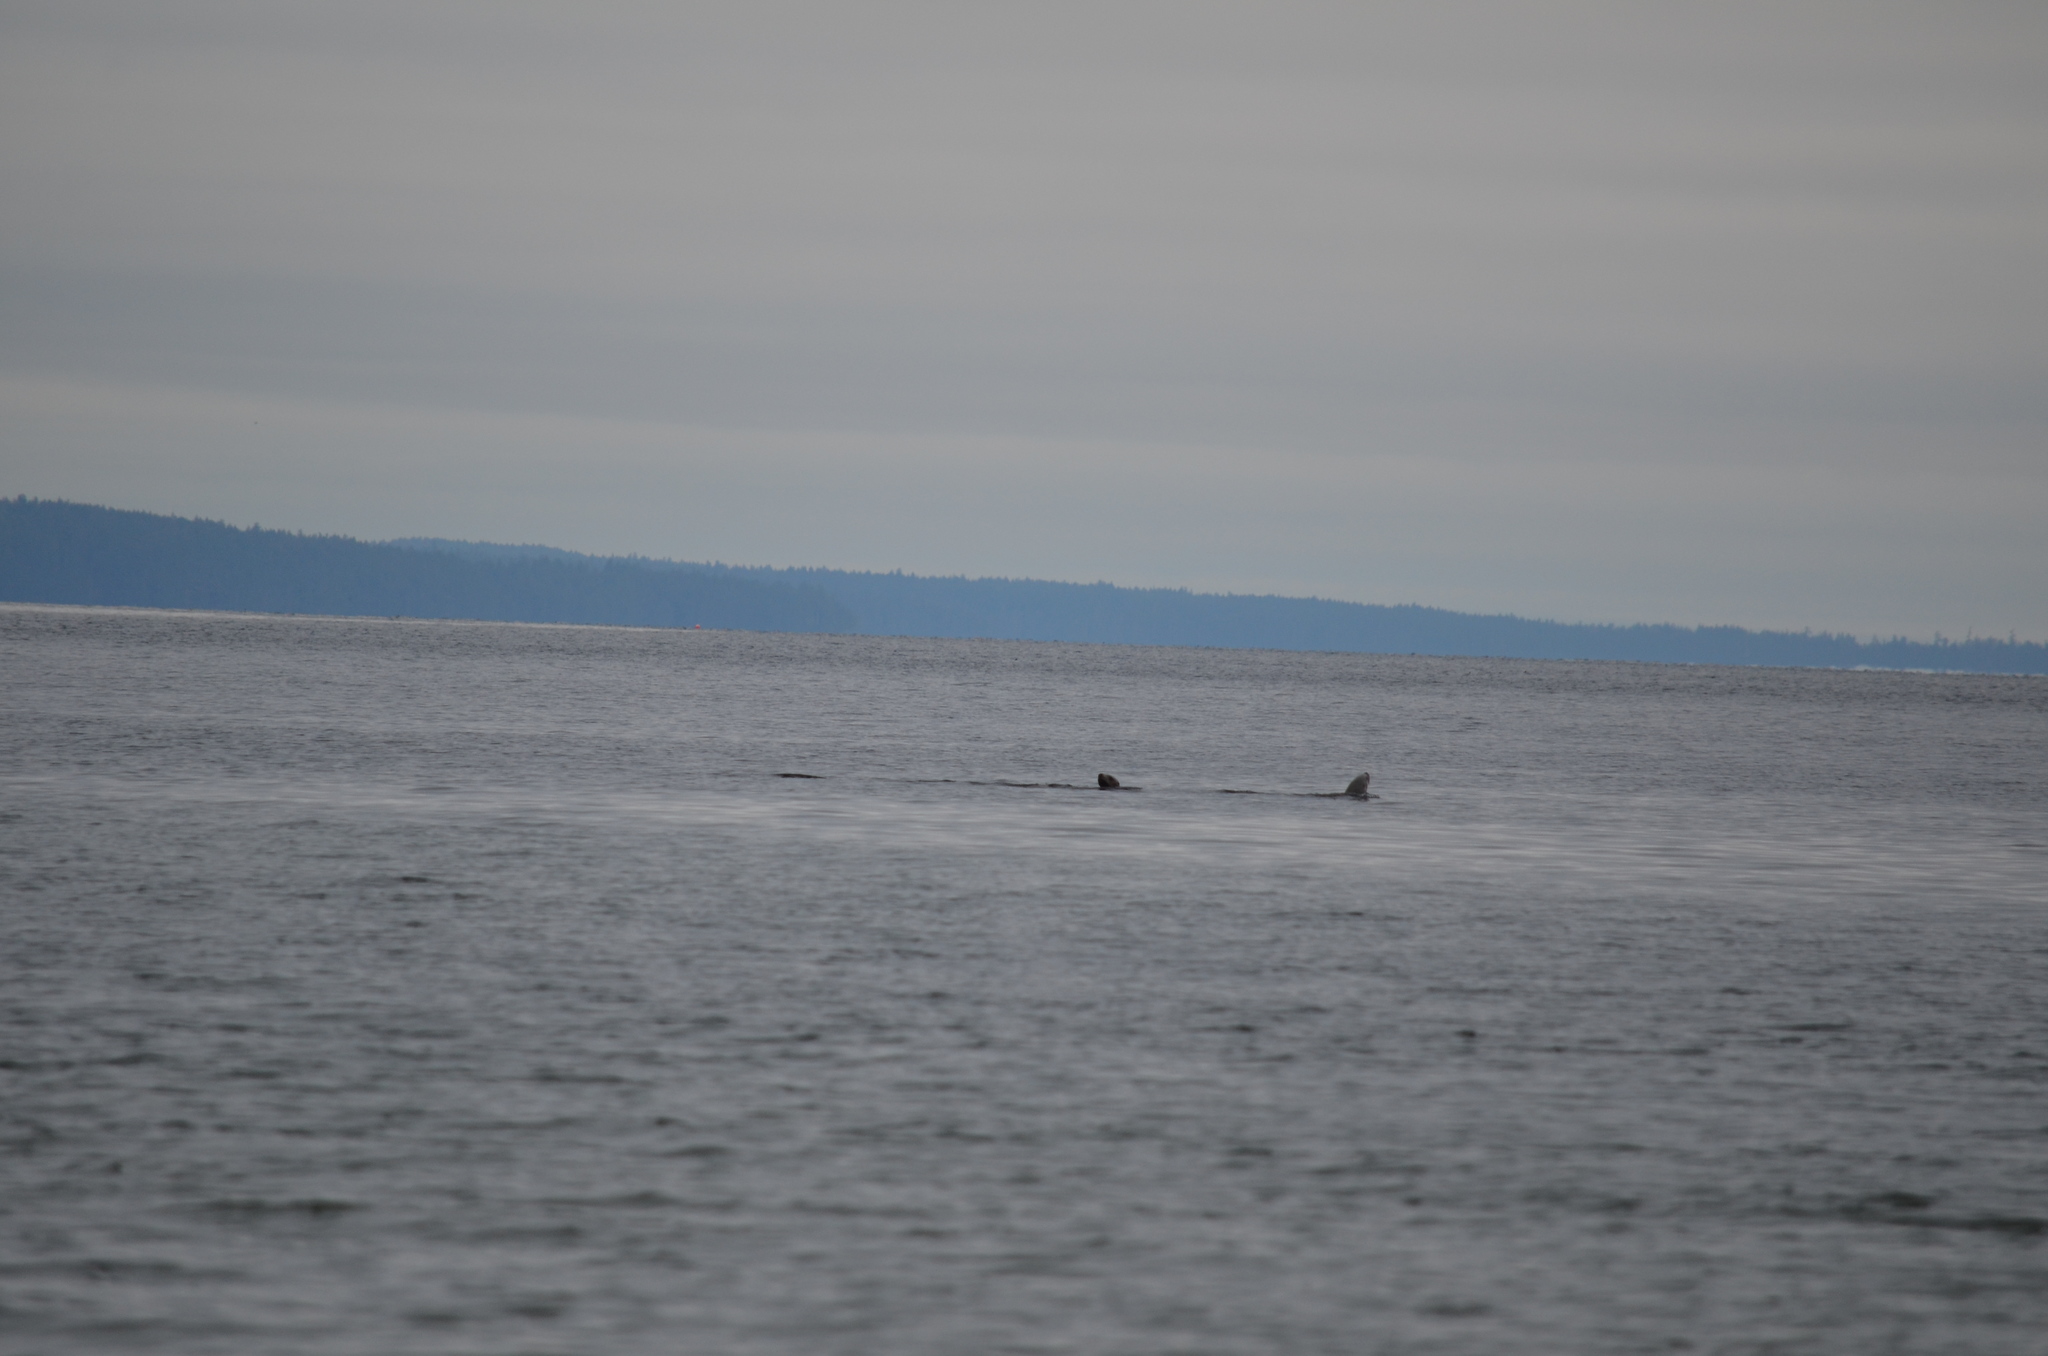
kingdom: Animalia
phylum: Chordata
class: Mammalia
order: Carnivora
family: Otariidae
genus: Eumetopias
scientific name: Eumetopias jubatus
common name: Steller sea lion
